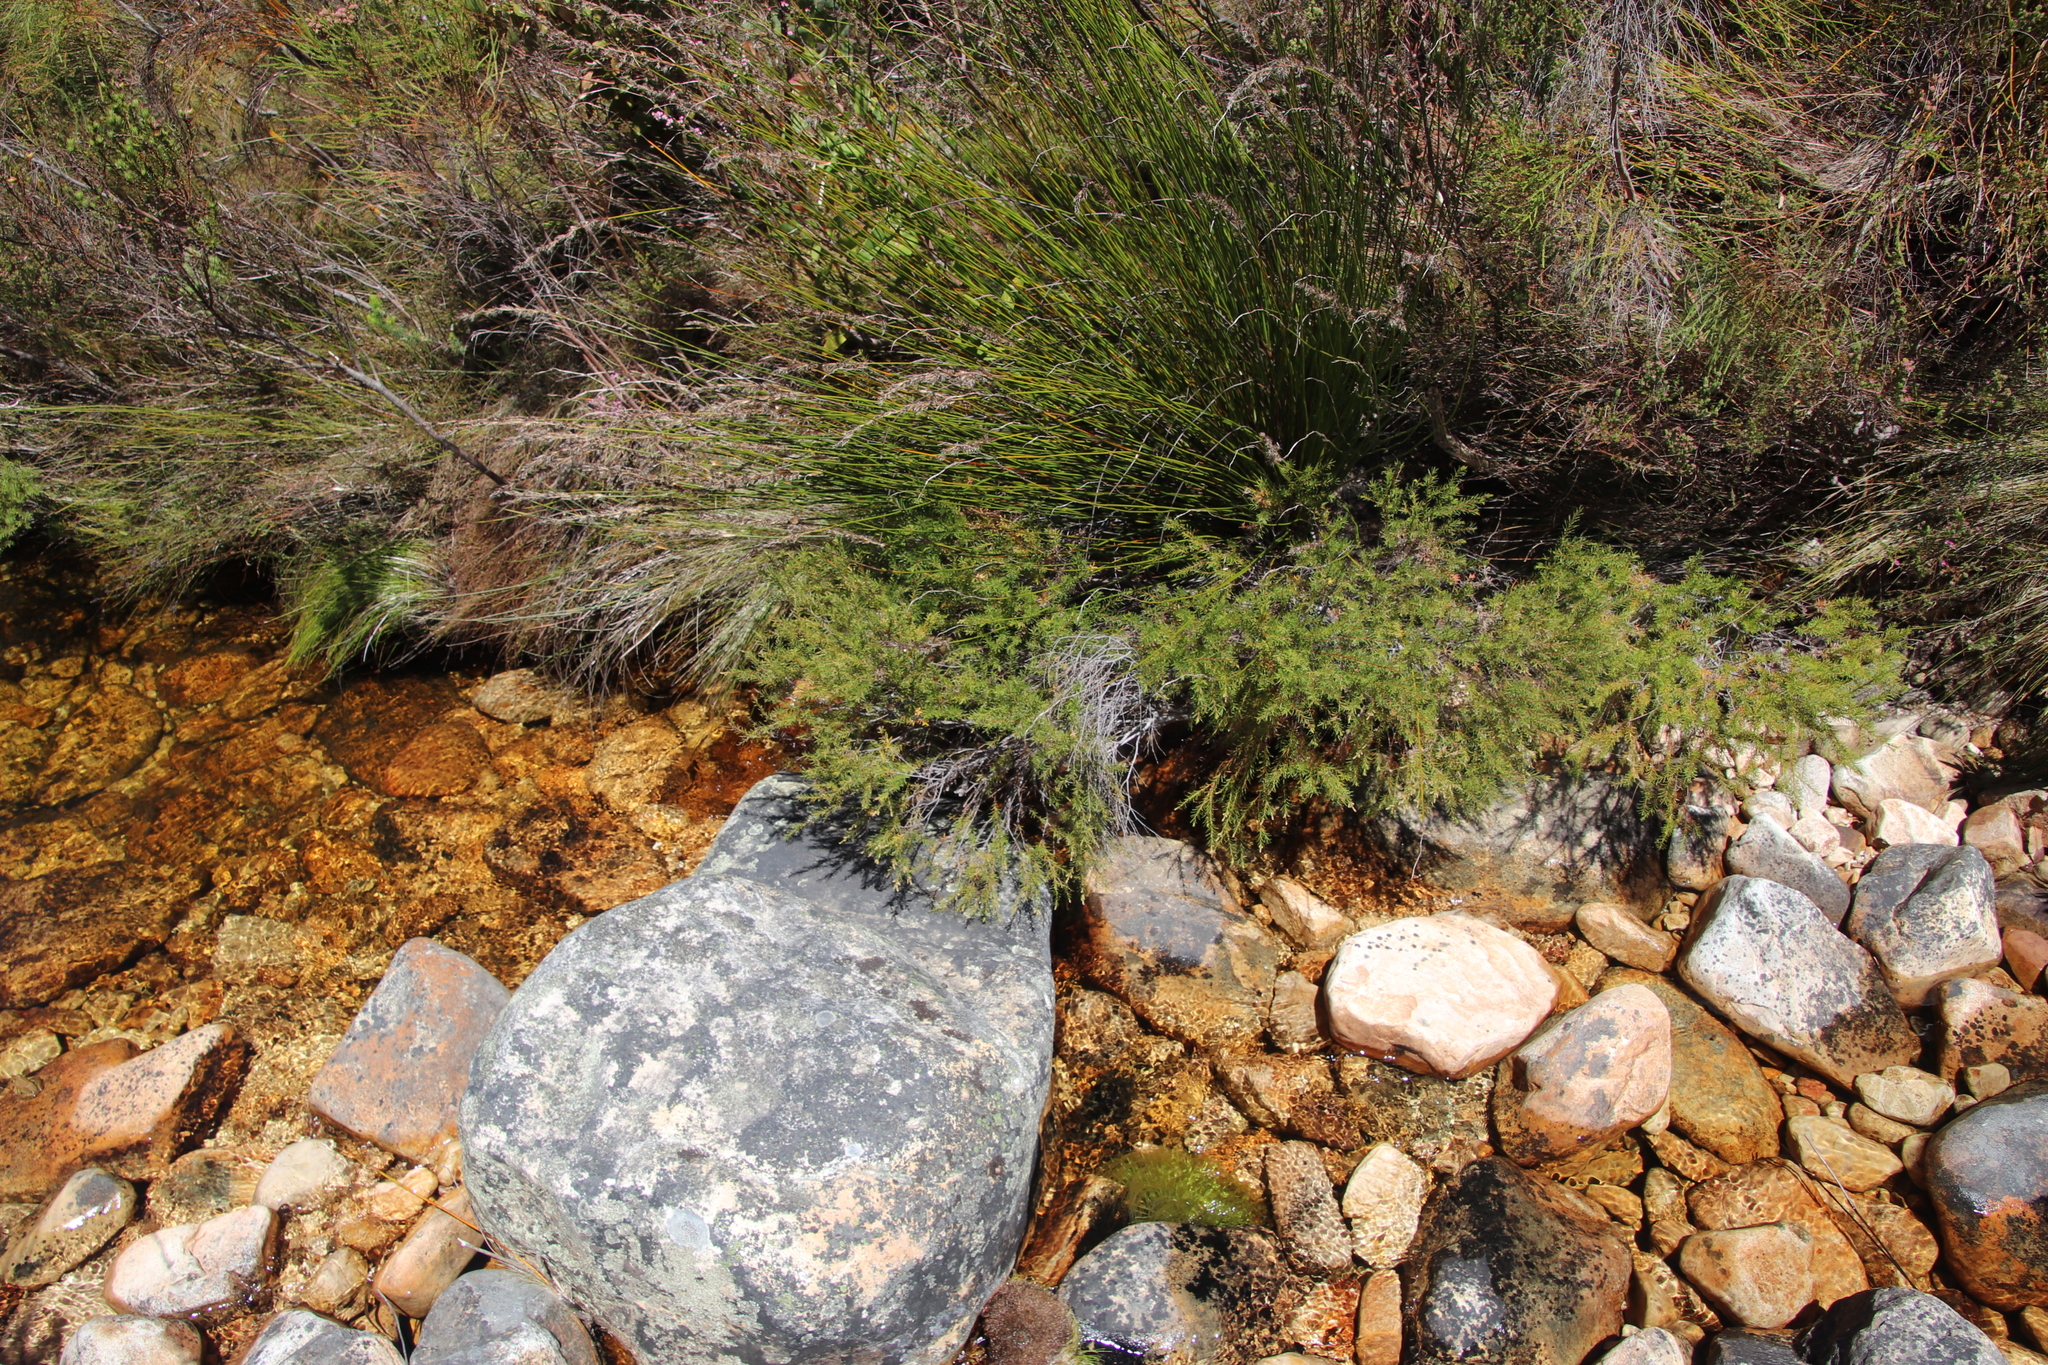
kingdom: Plantae
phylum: Tracheophyta
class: Magnoliopsida
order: Bruniales
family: Bruniaceae
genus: Brunia
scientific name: Brunia africana
